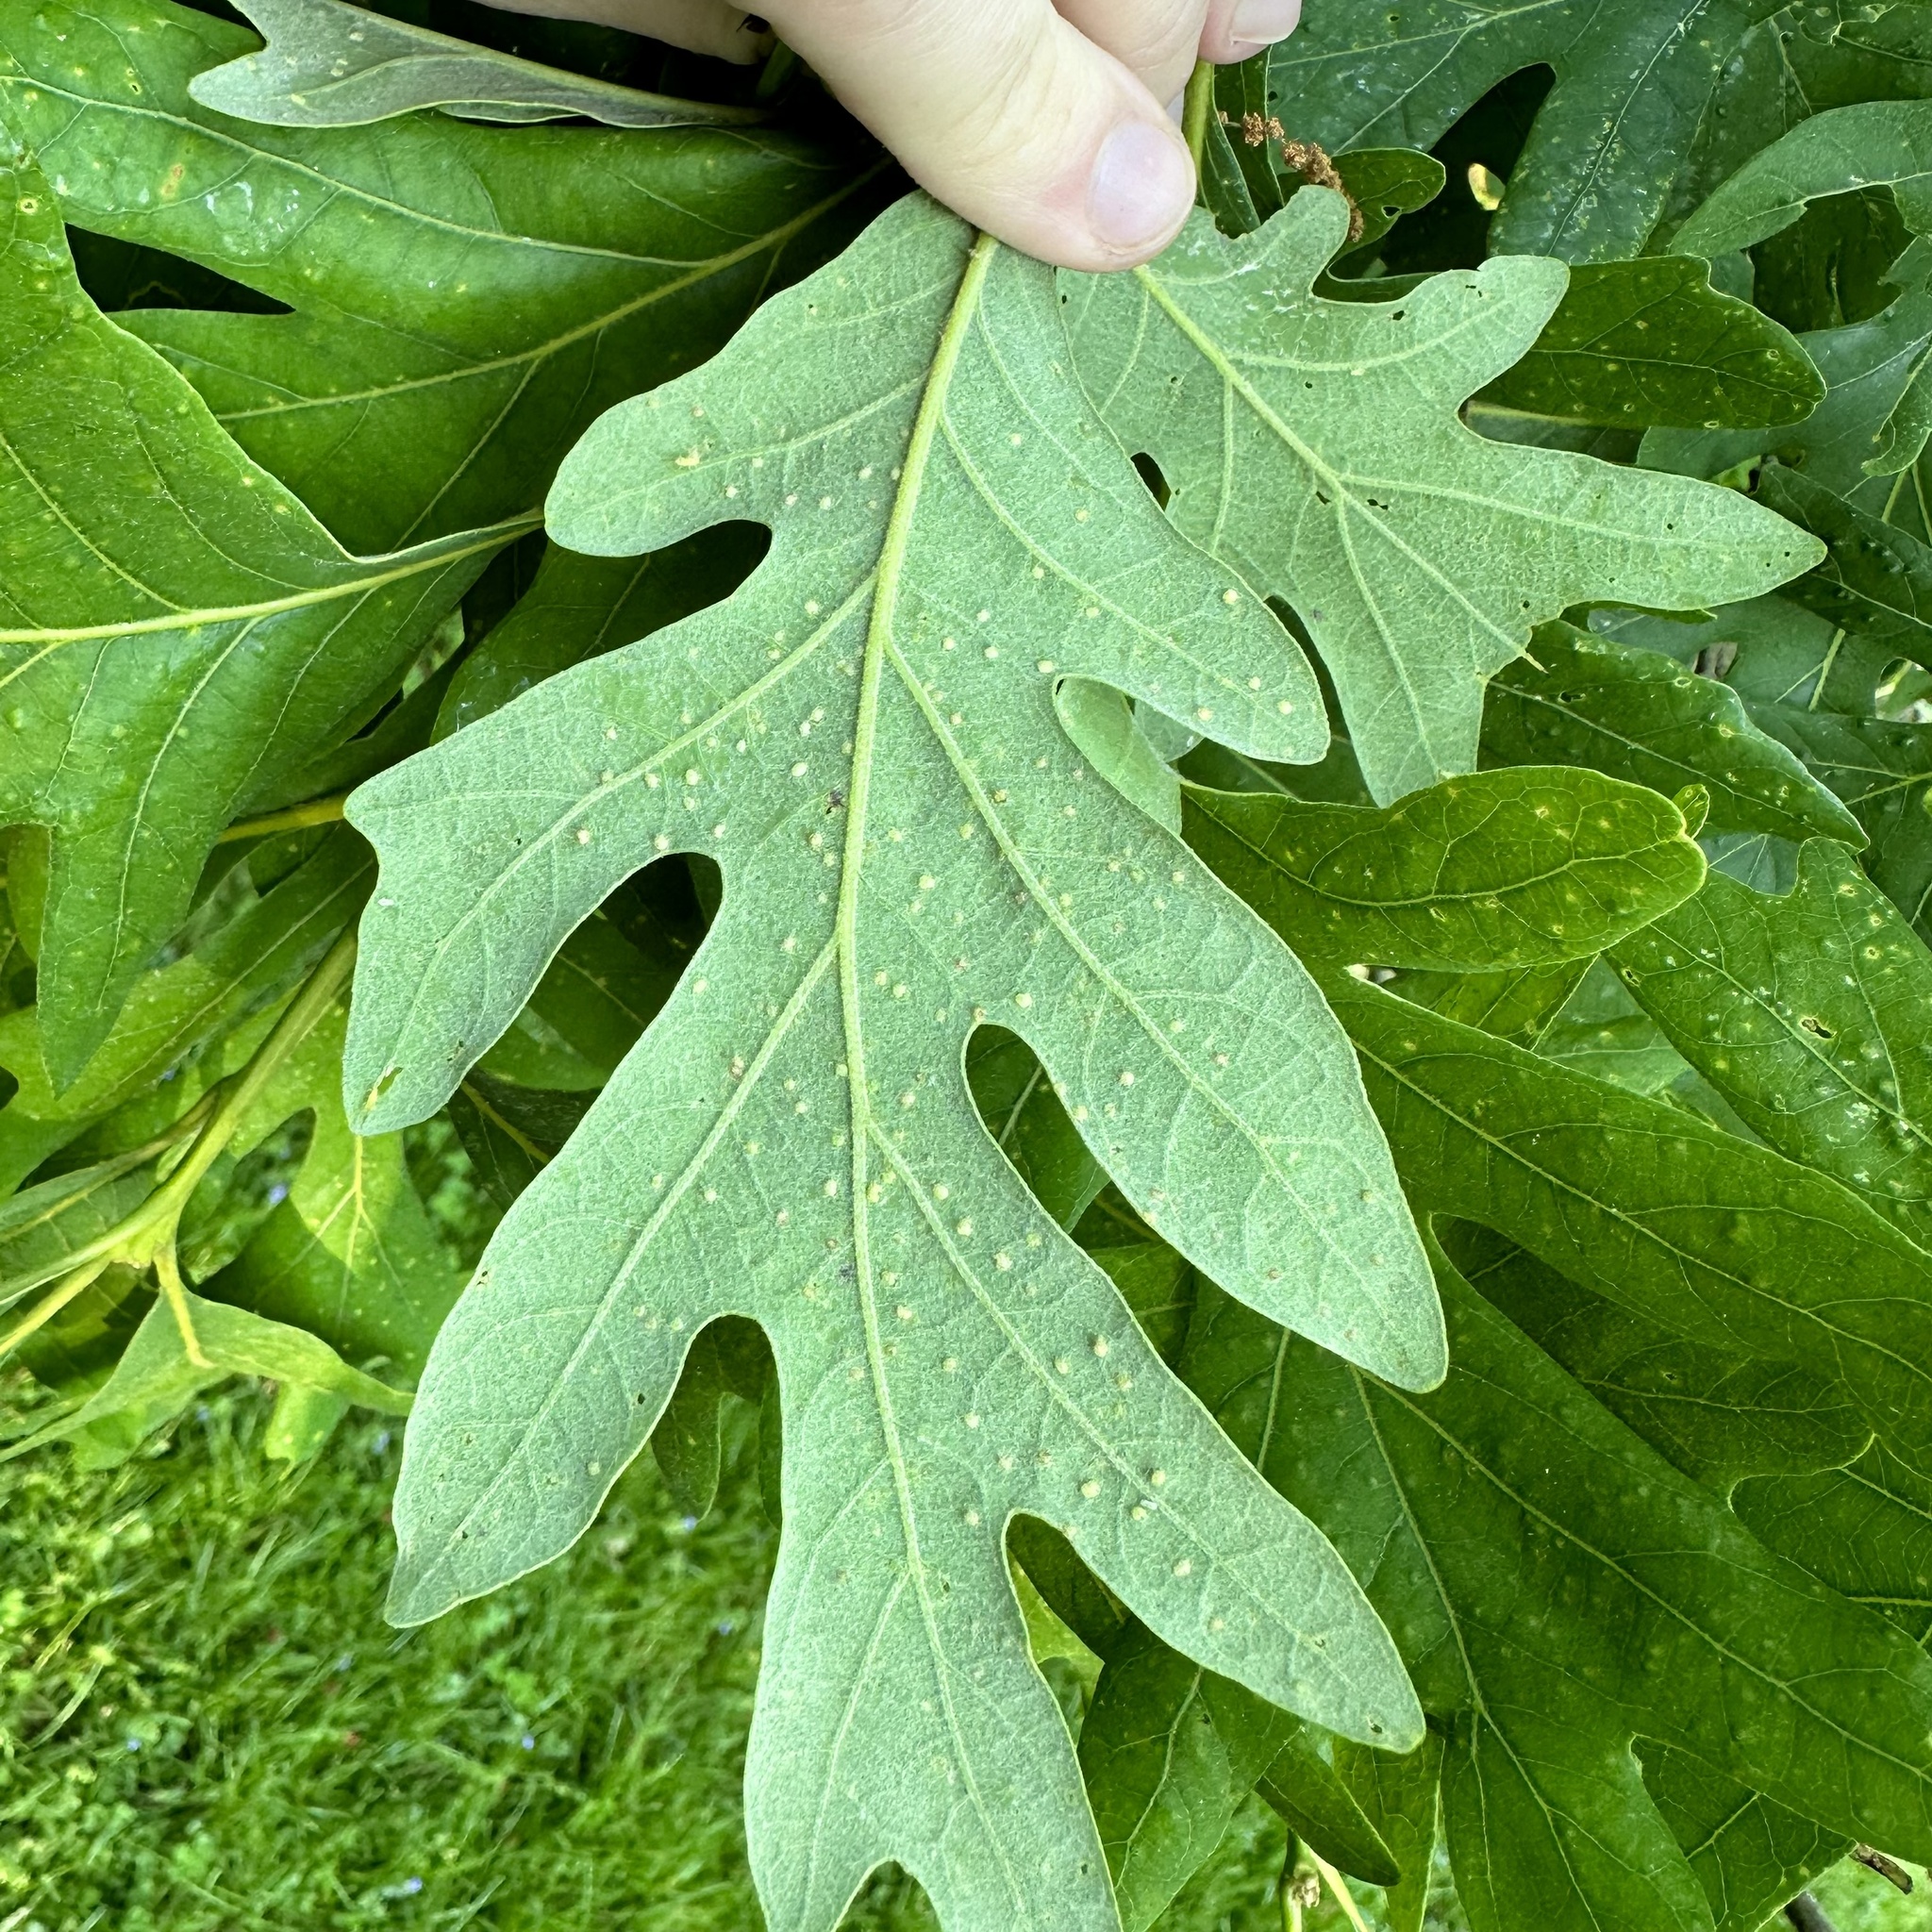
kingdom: Animalia
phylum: Arthropoda
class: Insecta
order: Hymenoptera
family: Cynipidae
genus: Neuroterus
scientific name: Neuroterus
